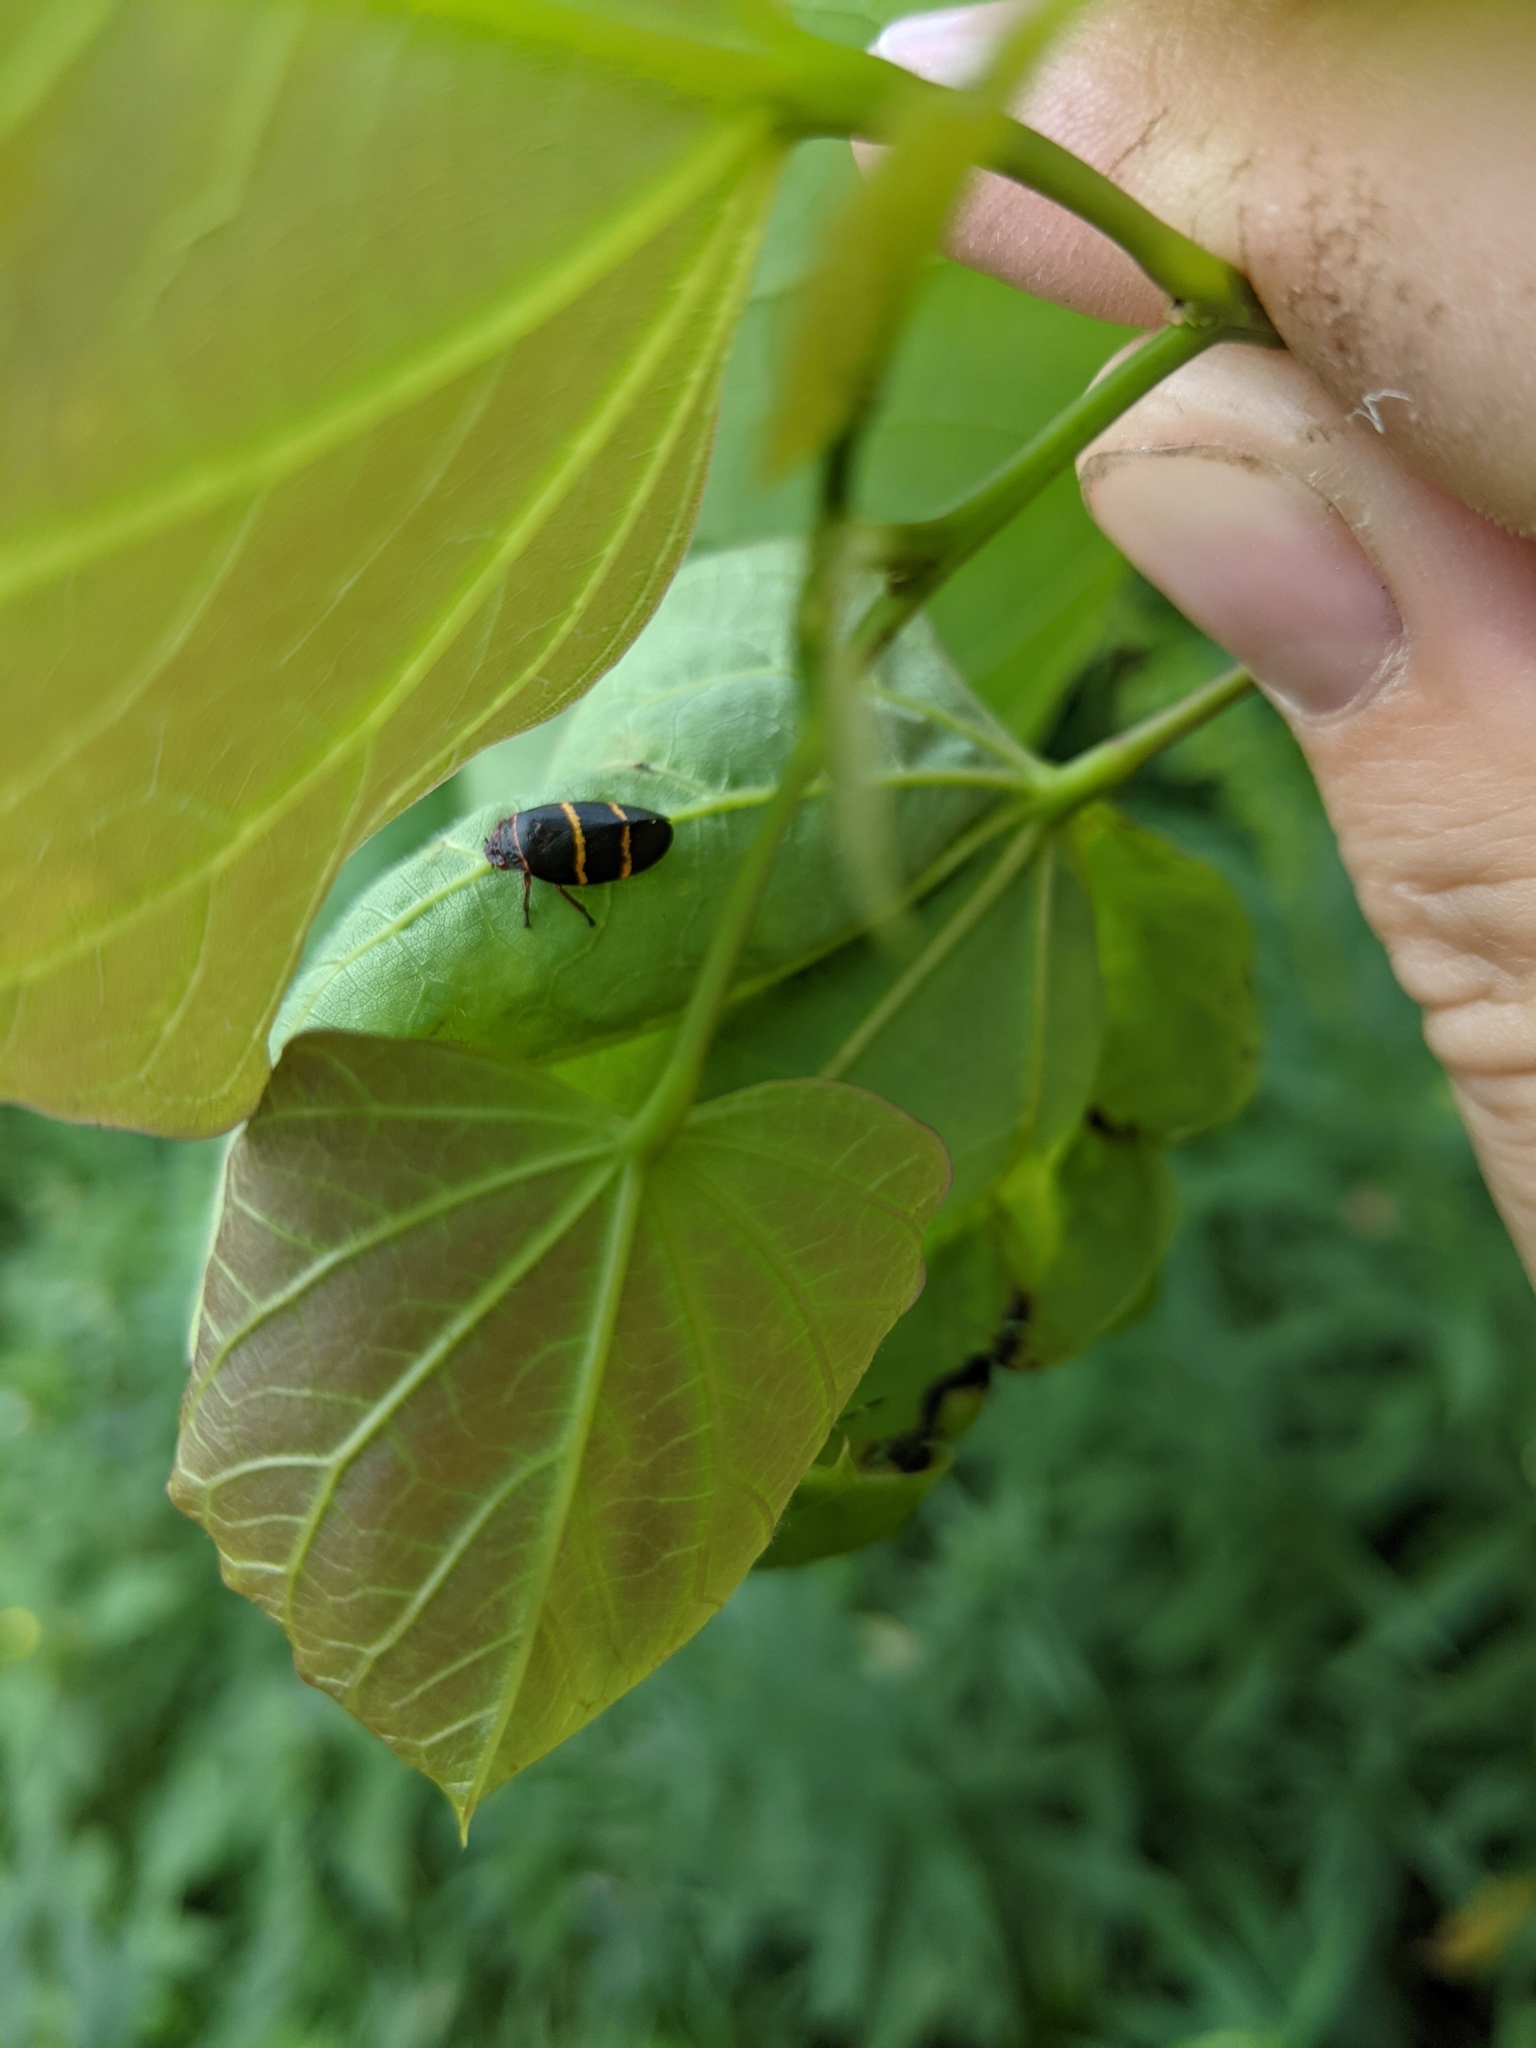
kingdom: Animalia
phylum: Arthropoda
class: Insecta
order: Hemiptera
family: Cercopidae
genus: Prosapia
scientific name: Prosapia bicincta
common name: Twolined spittlebug
